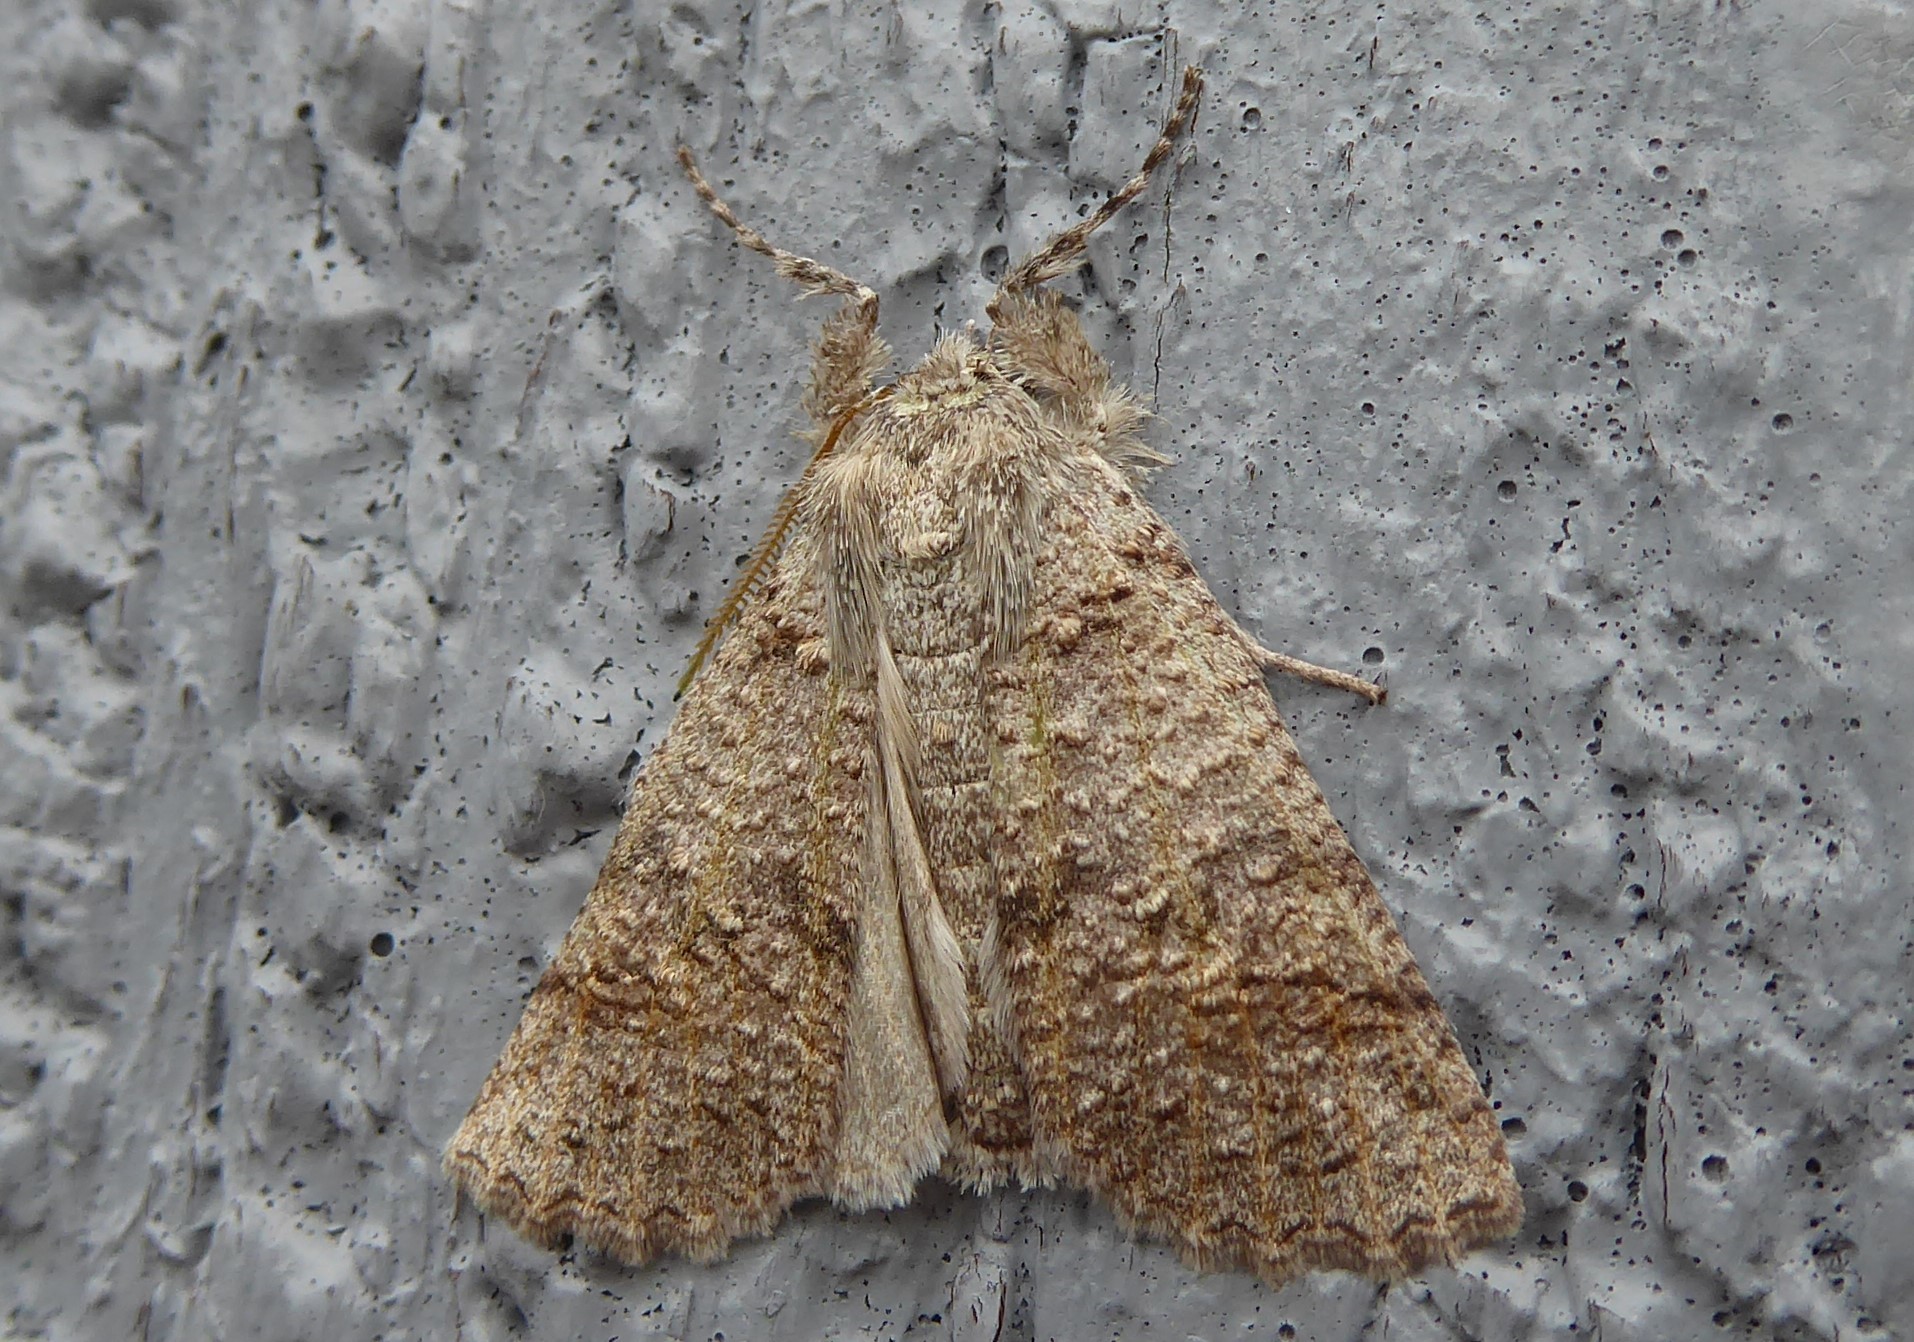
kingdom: Animalia
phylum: Arthropoda
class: Insecta
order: Lepidoptera
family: Geometridae
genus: Declana
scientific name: Declana floccosa
